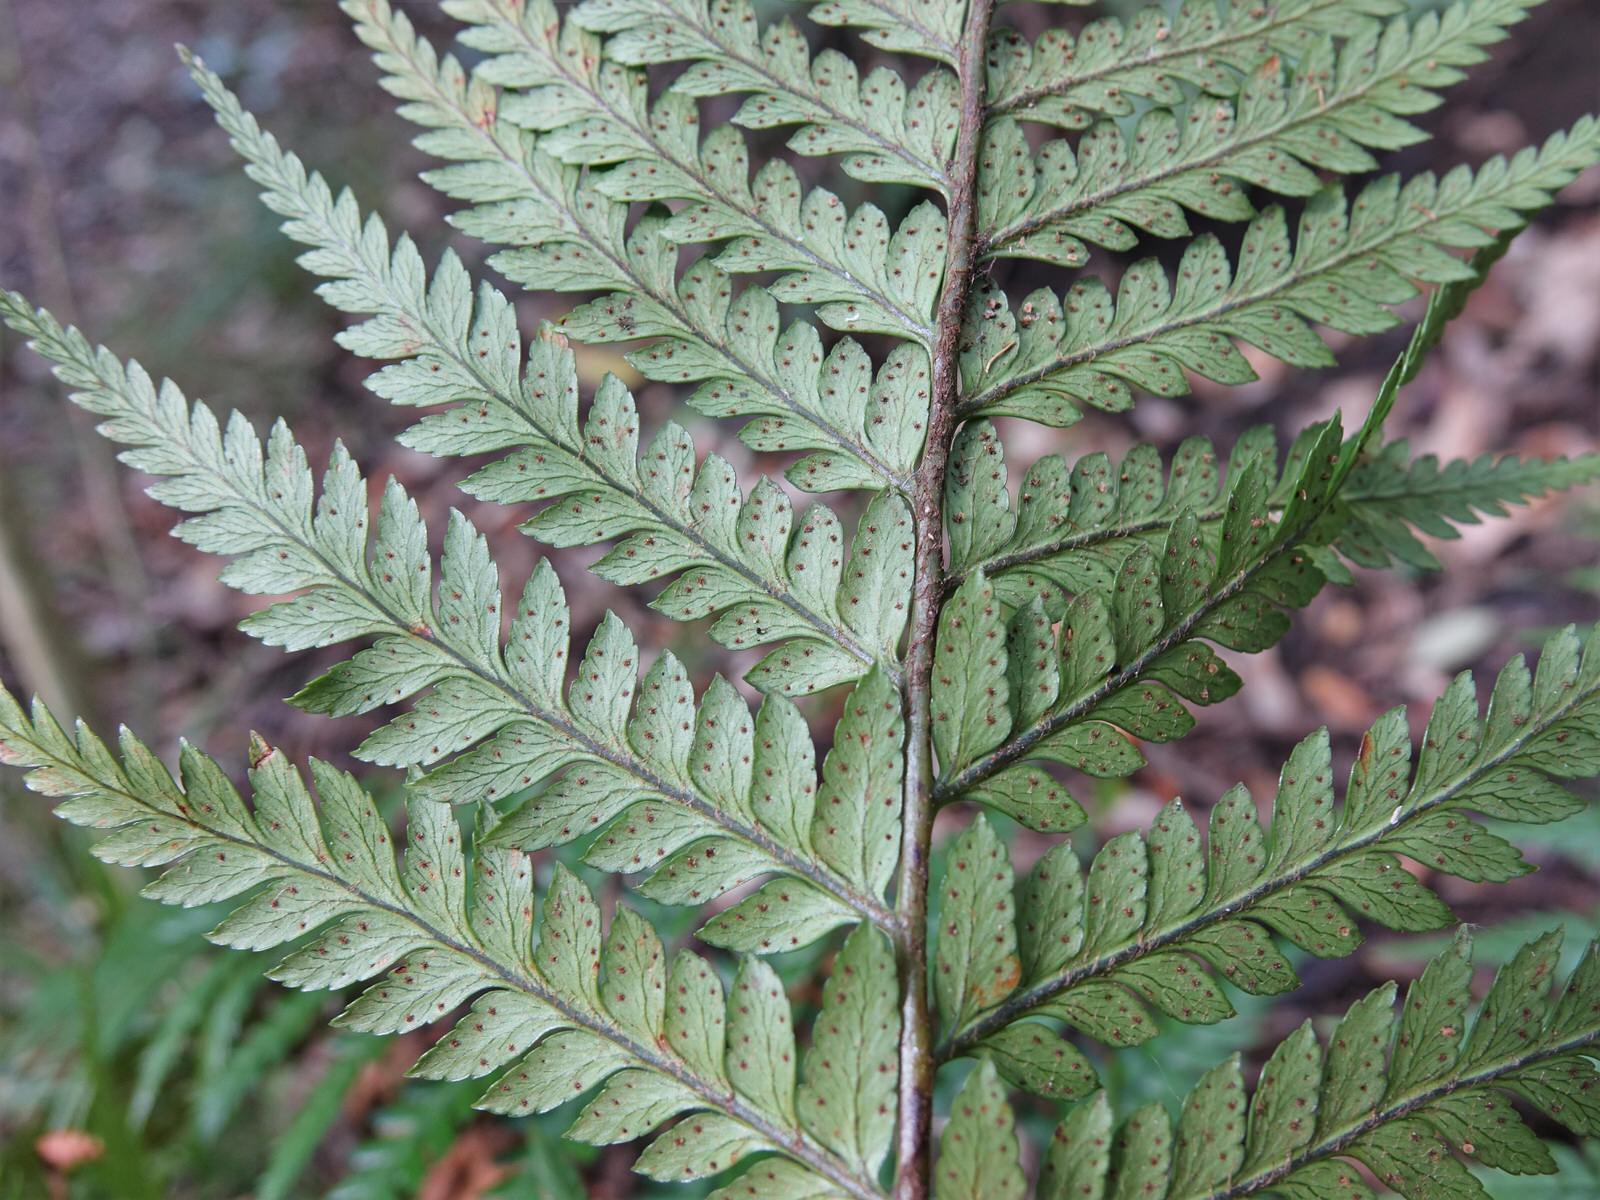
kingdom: Plantae
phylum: Tracheophyta
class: Polypodiopsida
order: Polypodiales
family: Dryopteridaceae
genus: Polystichum
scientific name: Polystichum wawranum
